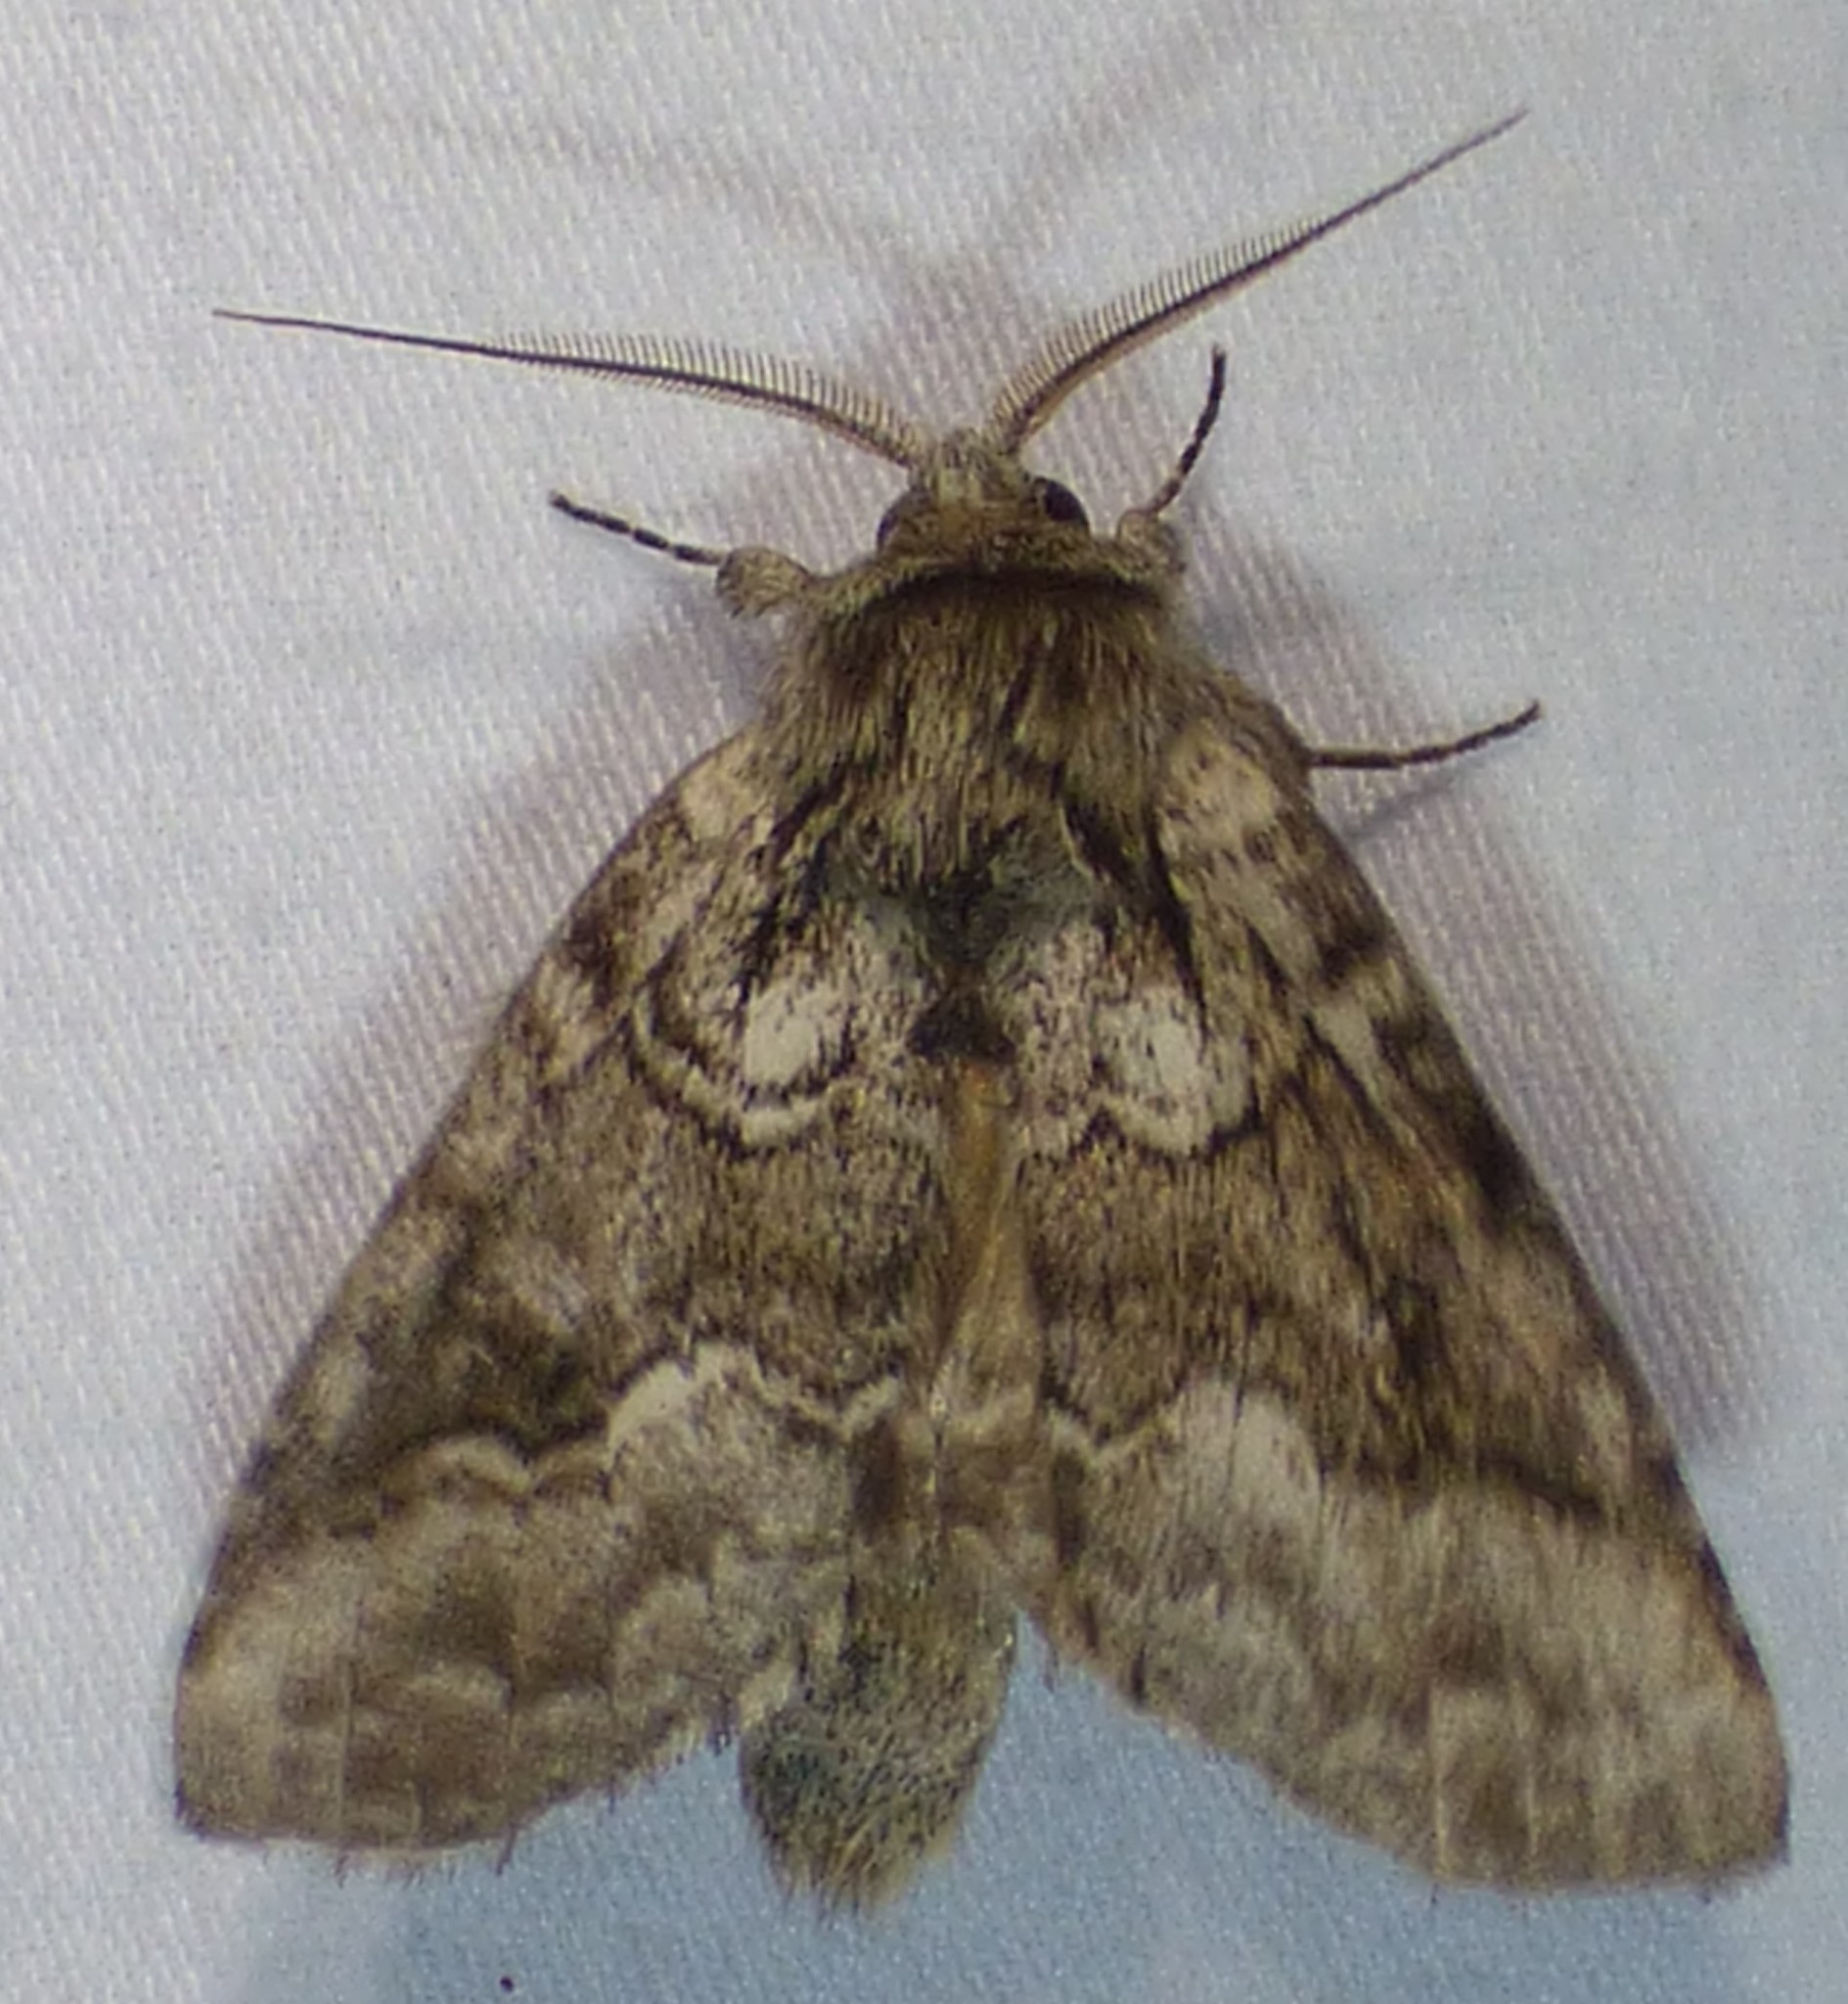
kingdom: Animalia
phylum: Arthropoda
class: Insecta
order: Lepidoptera
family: Notodontidae
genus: Lochmaeus
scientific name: Lochmaeus bilineata
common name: Double-lined prominent
